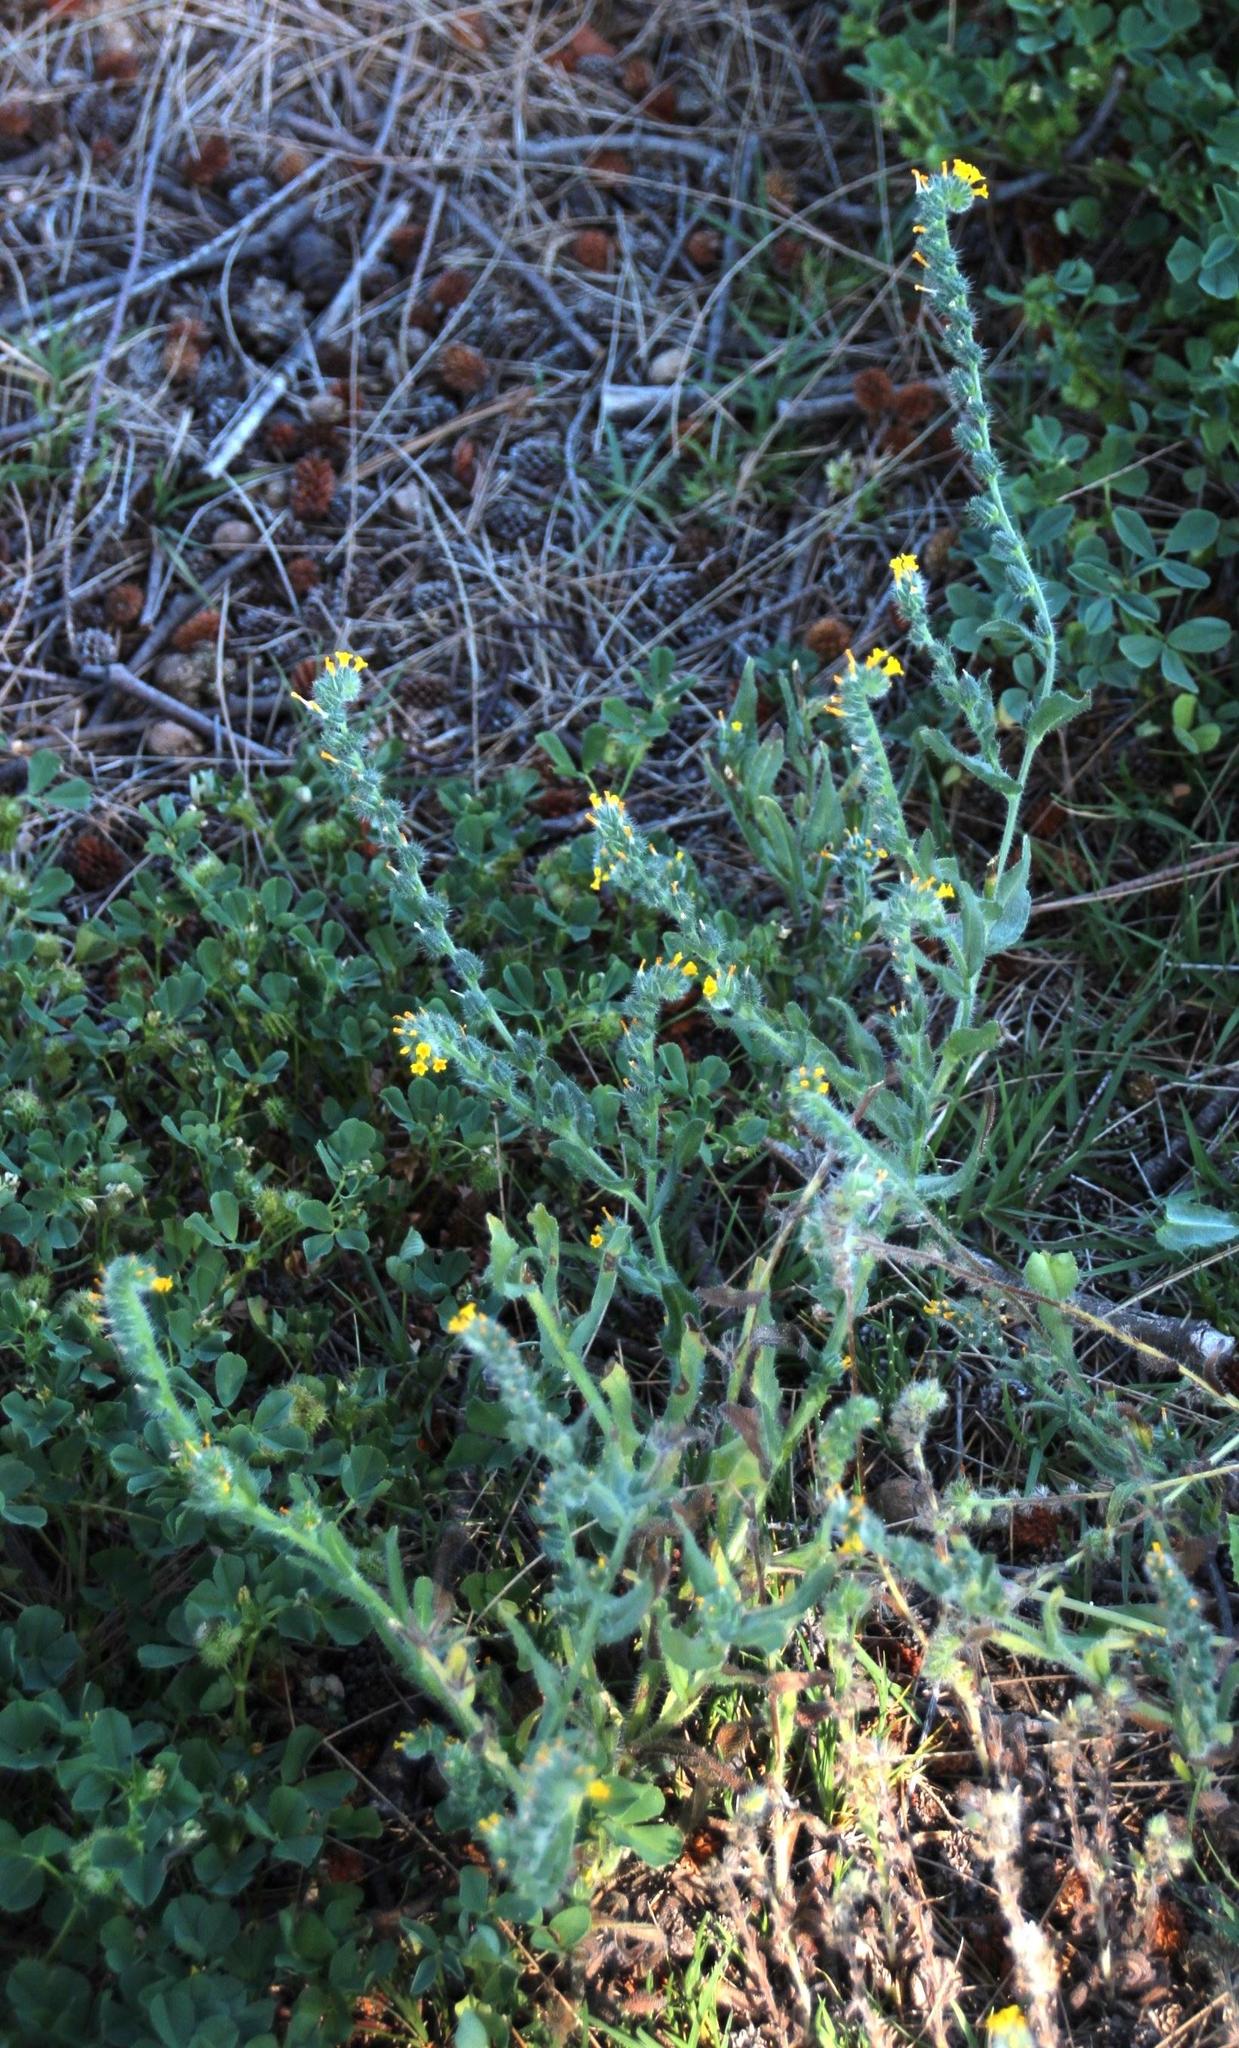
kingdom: Plantae
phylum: Tracheophyta
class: Magnoliopsida
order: Boraginales
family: Boraginaceae
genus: Amsinckia
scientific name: Amsinckia menziesii
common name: Menzies' fiddleneck
